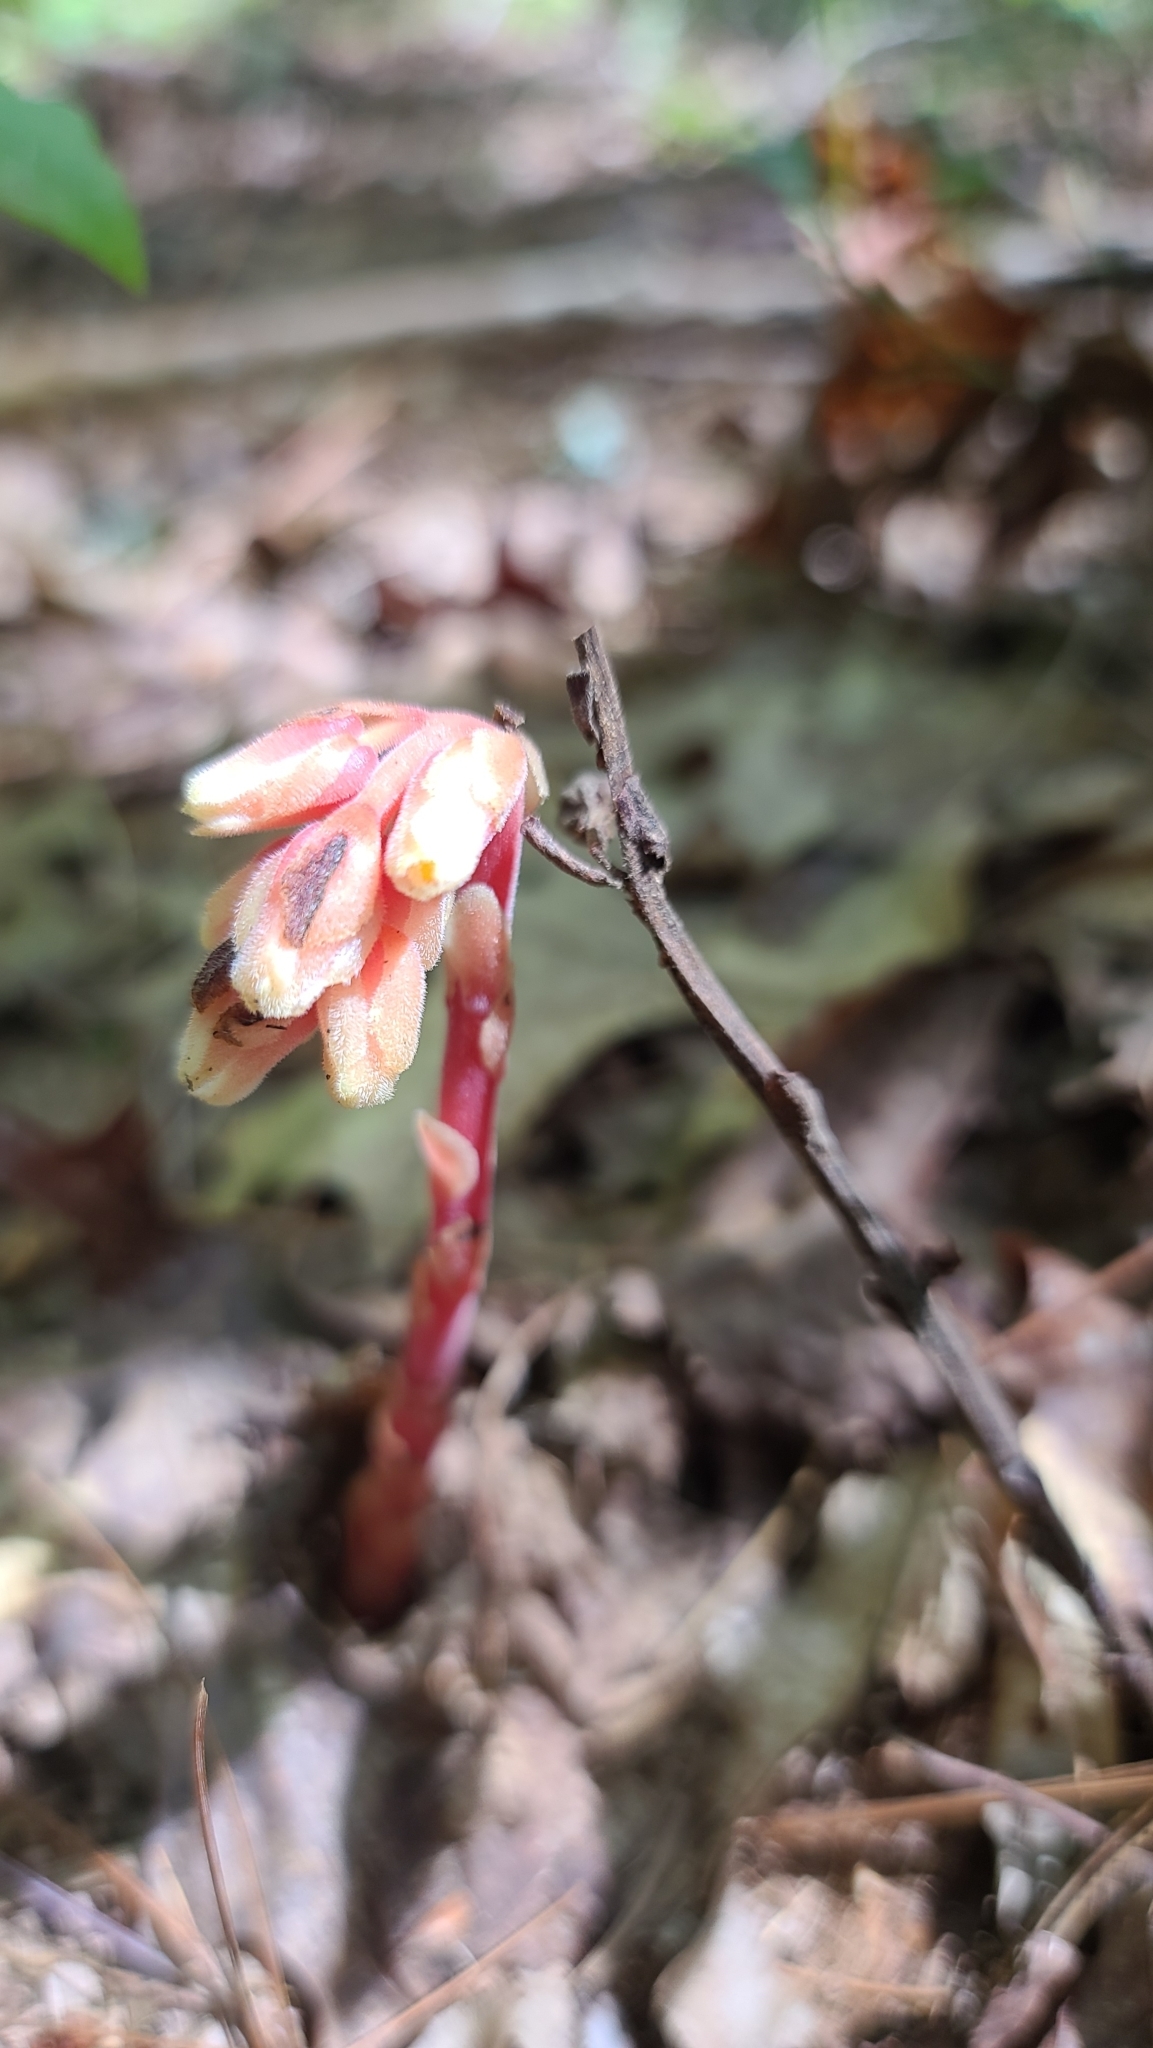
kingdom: Plantae
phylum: Tracheophyta
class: Magnoliopsida
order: Ericales
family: Ericaceae
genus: Hypopitys
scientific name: Hypopitys monotropa
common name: Yellow bird's-nest
